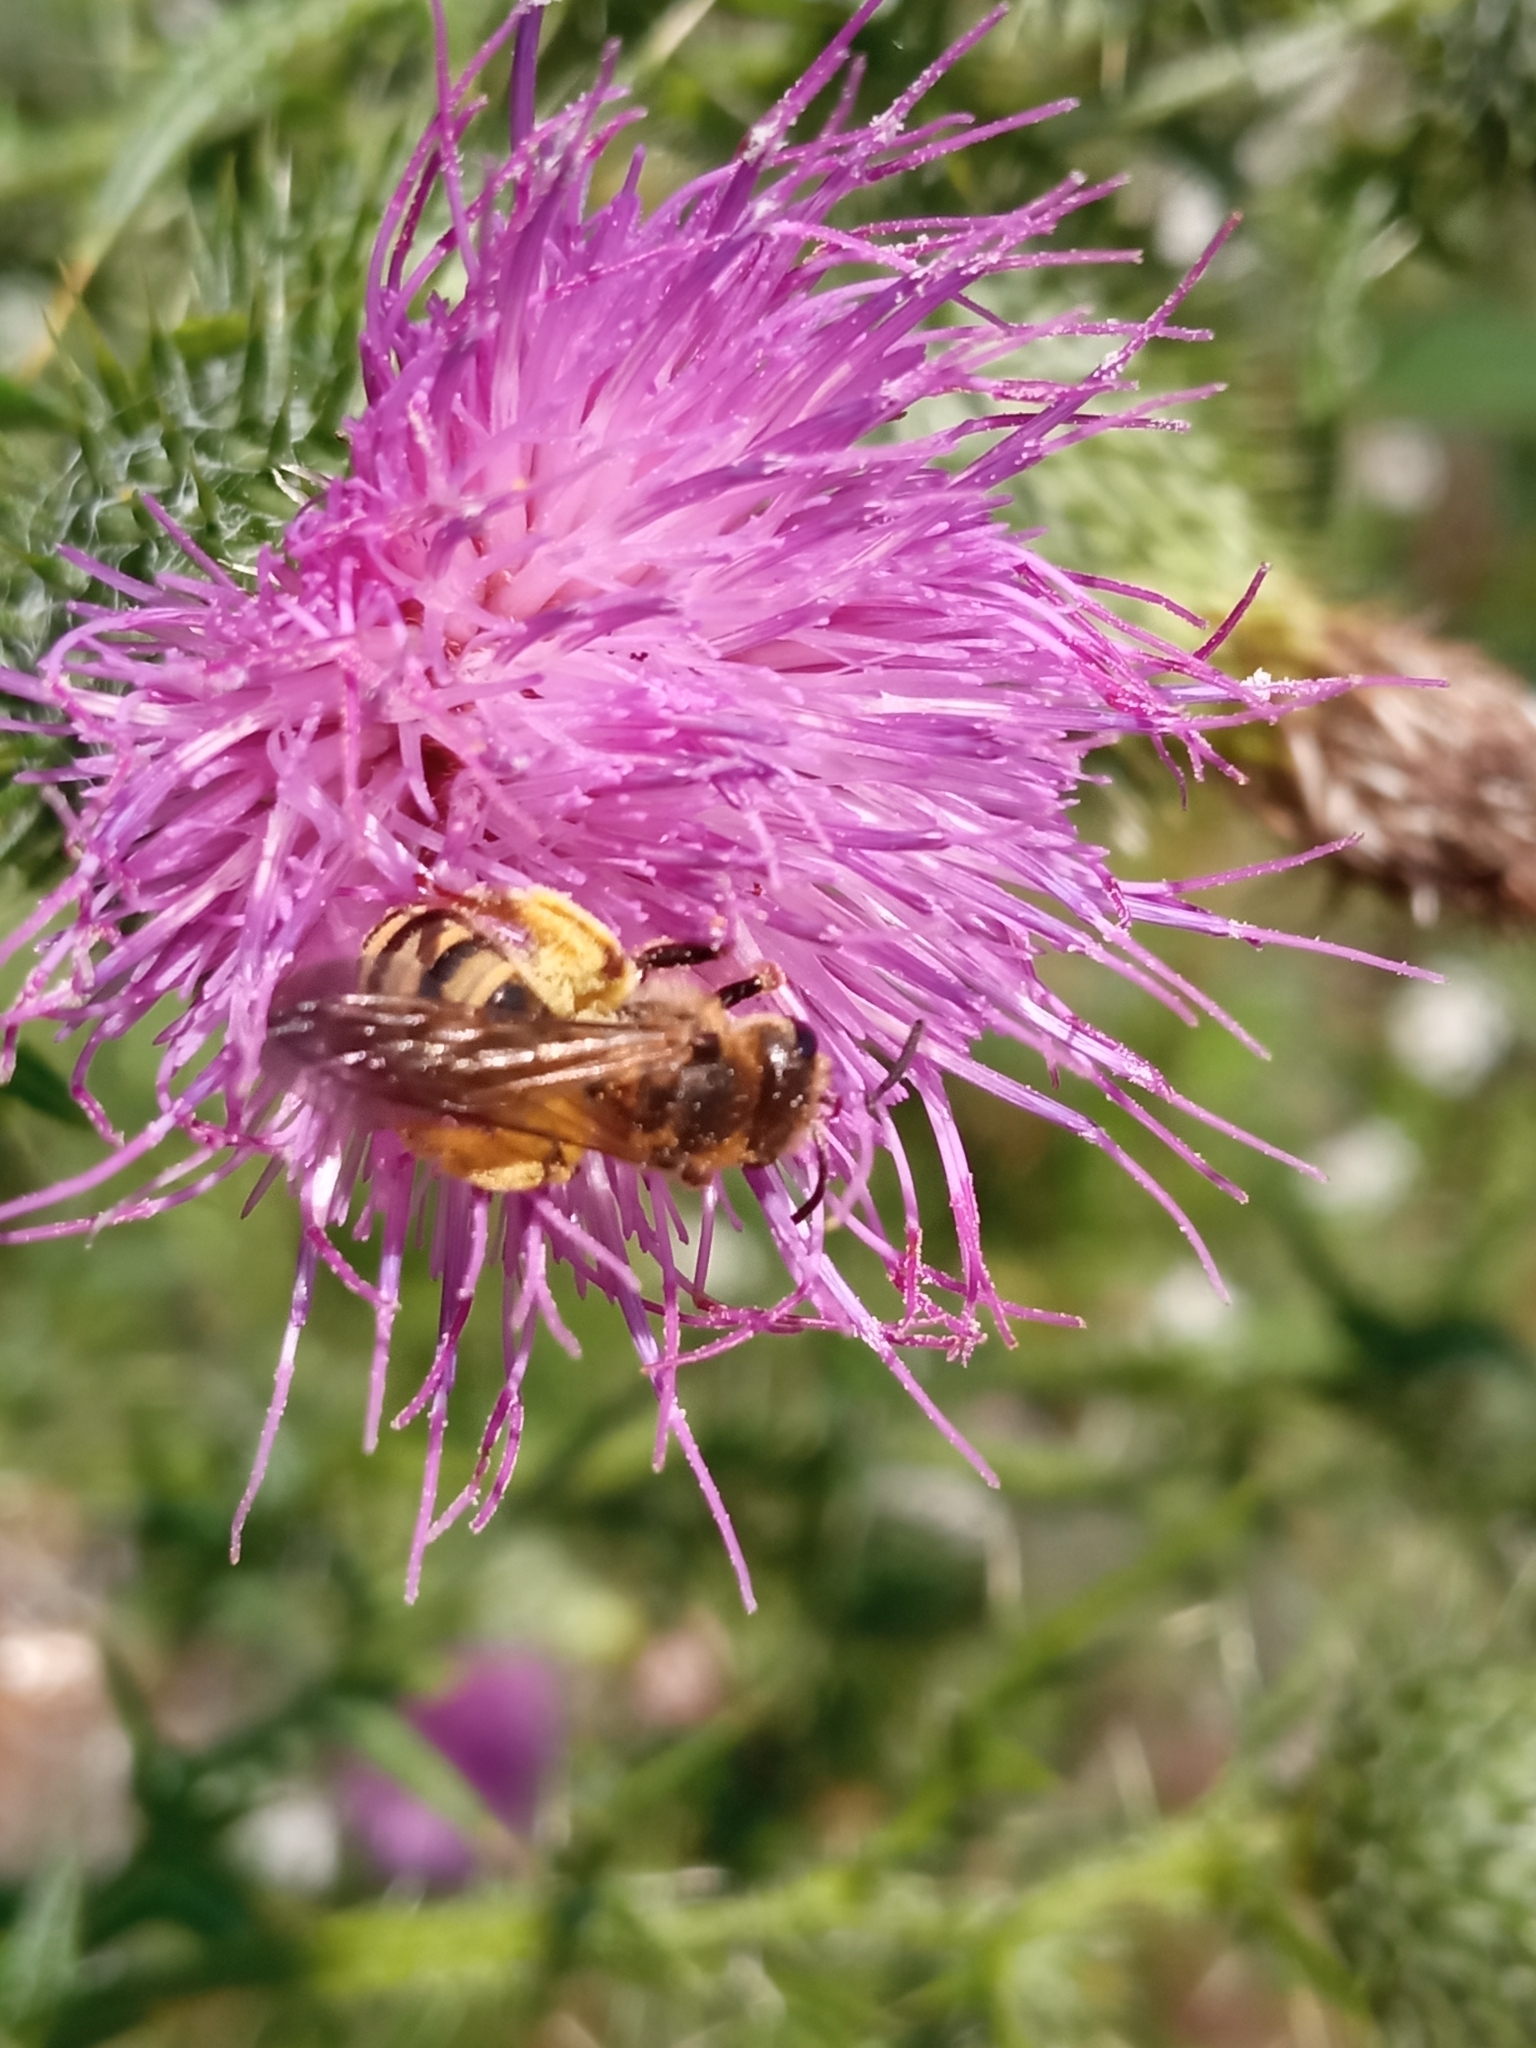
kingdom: Animalia
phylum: Arthropoda
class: Insecta
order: Hymenoptera
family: Halictidae
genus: Halictus
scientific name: Halictus scabiosae
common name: Great banded furrow bee
